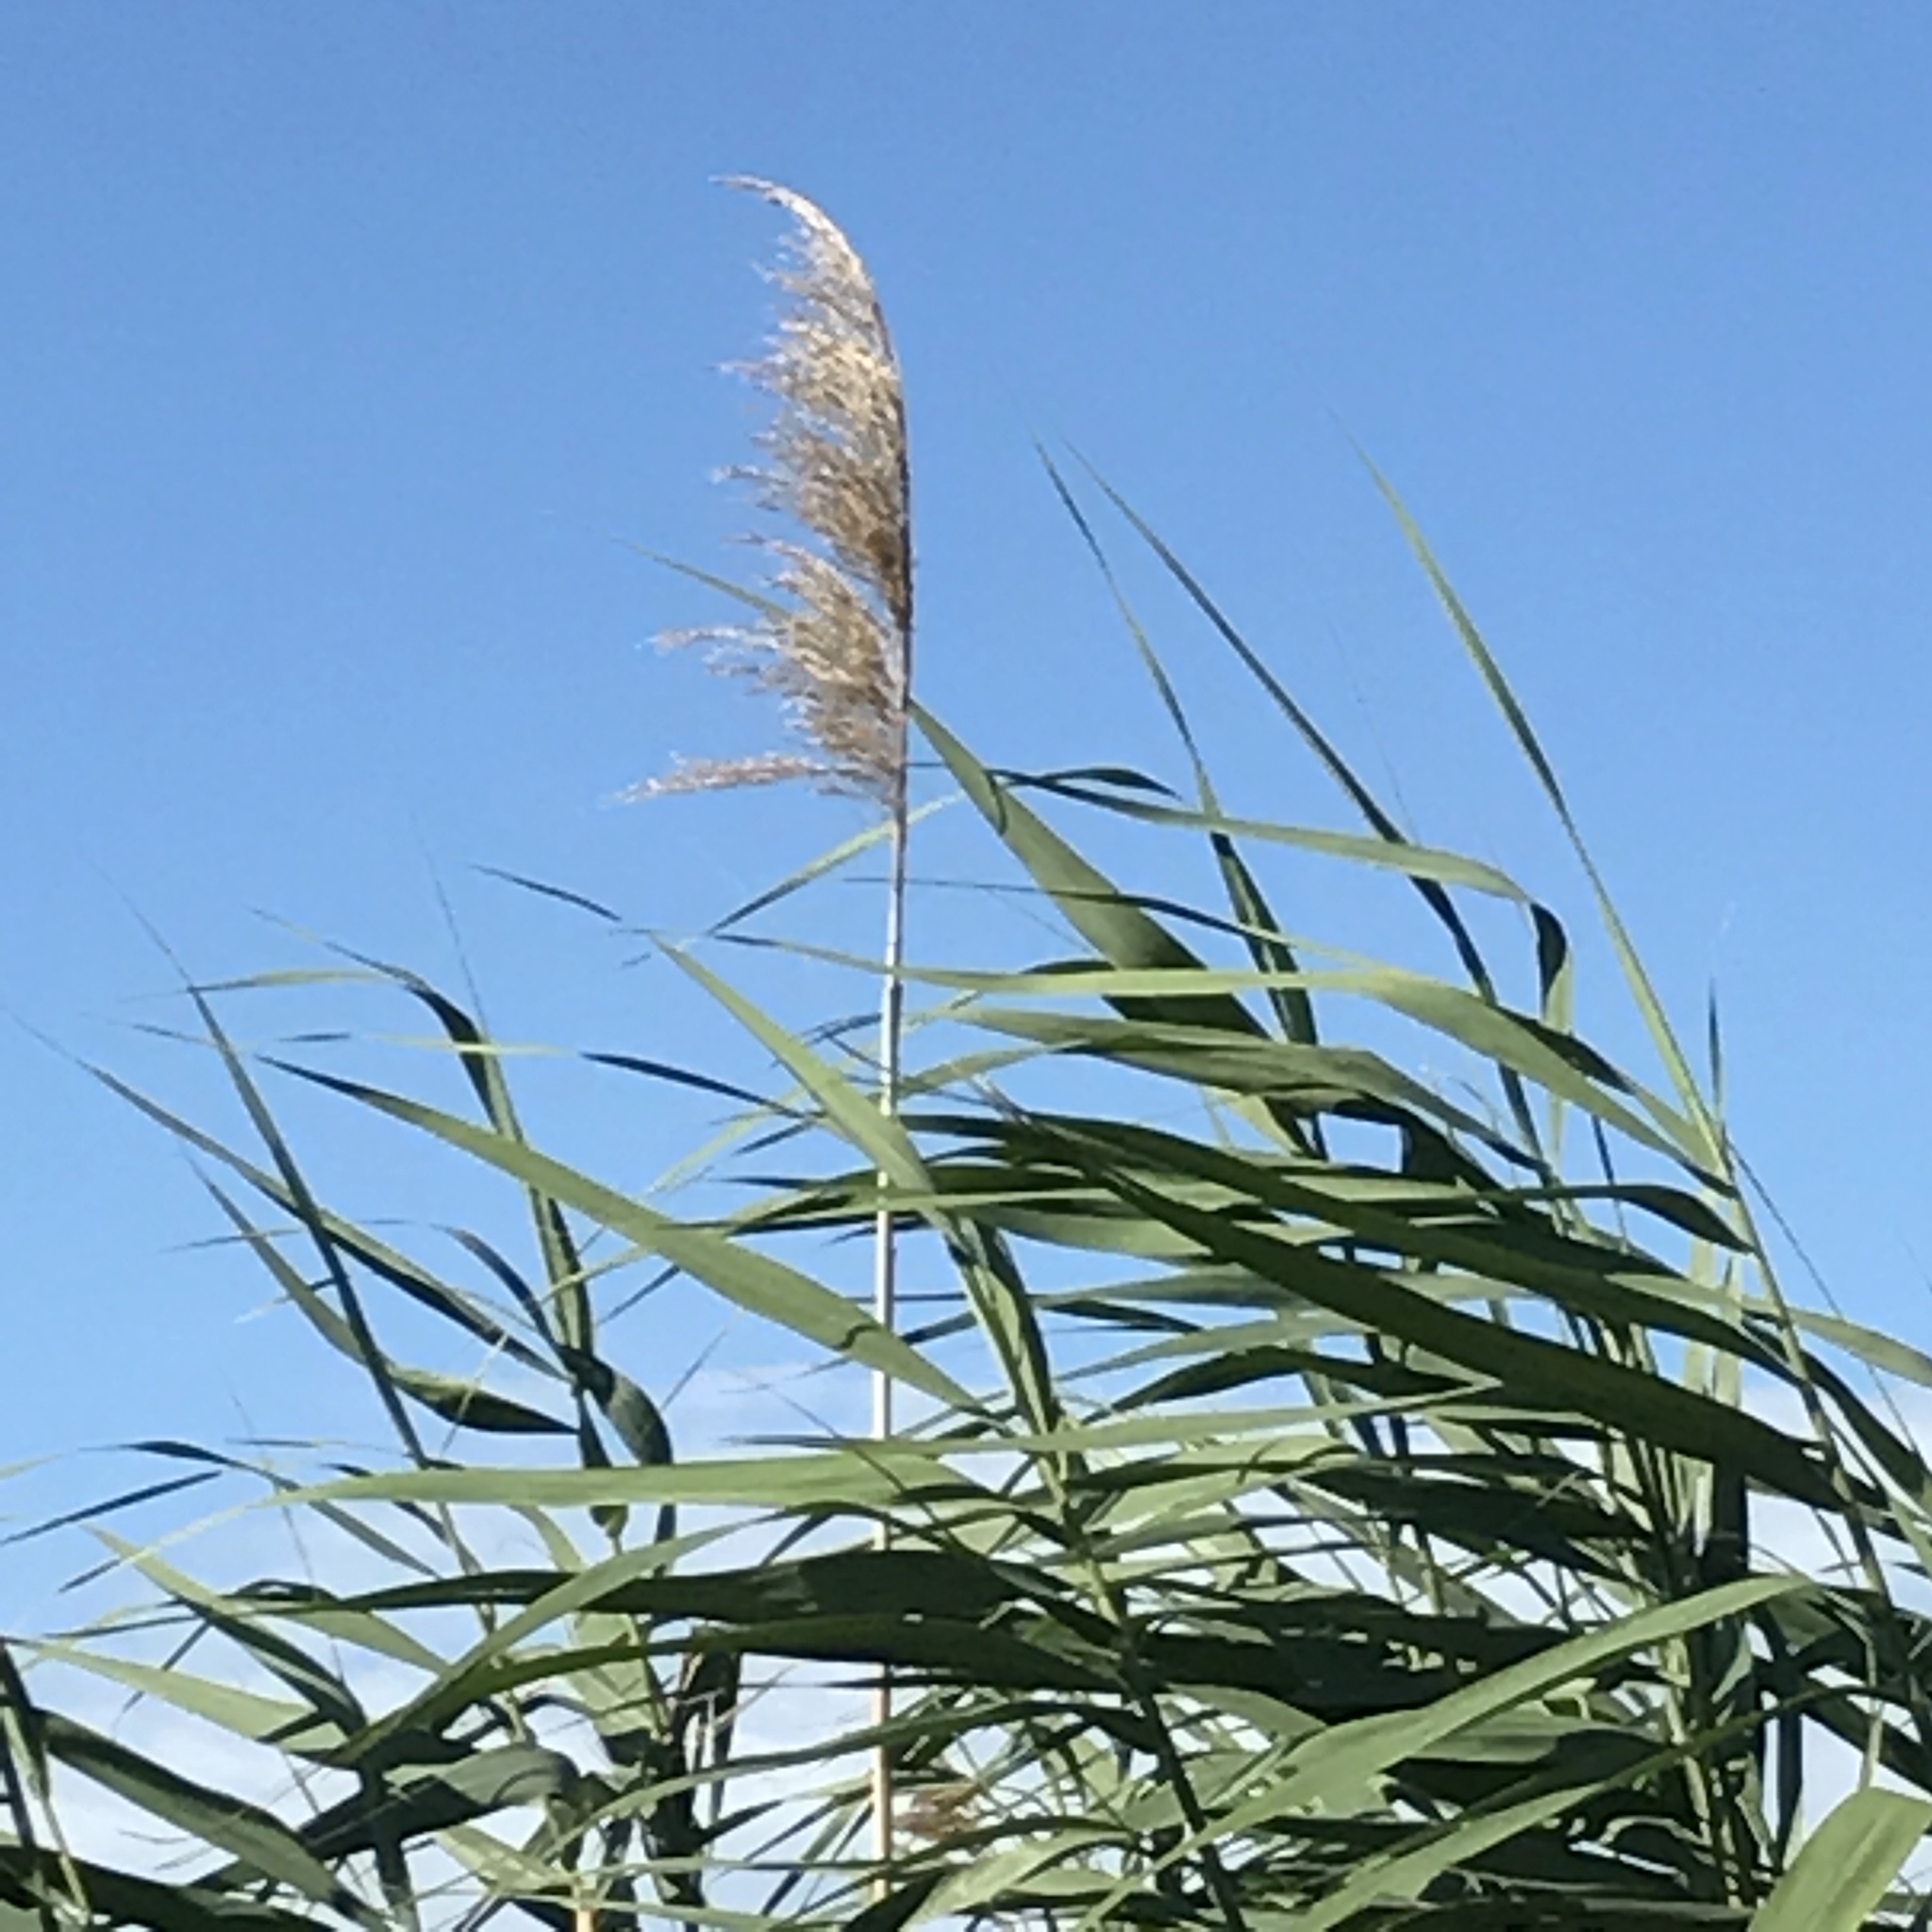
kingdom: Plantae
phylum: Tracheophyta
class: Liliopsida
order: Poales
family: Poaceae
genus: Phragmites
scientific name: Phragmites australis
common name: Common reed
